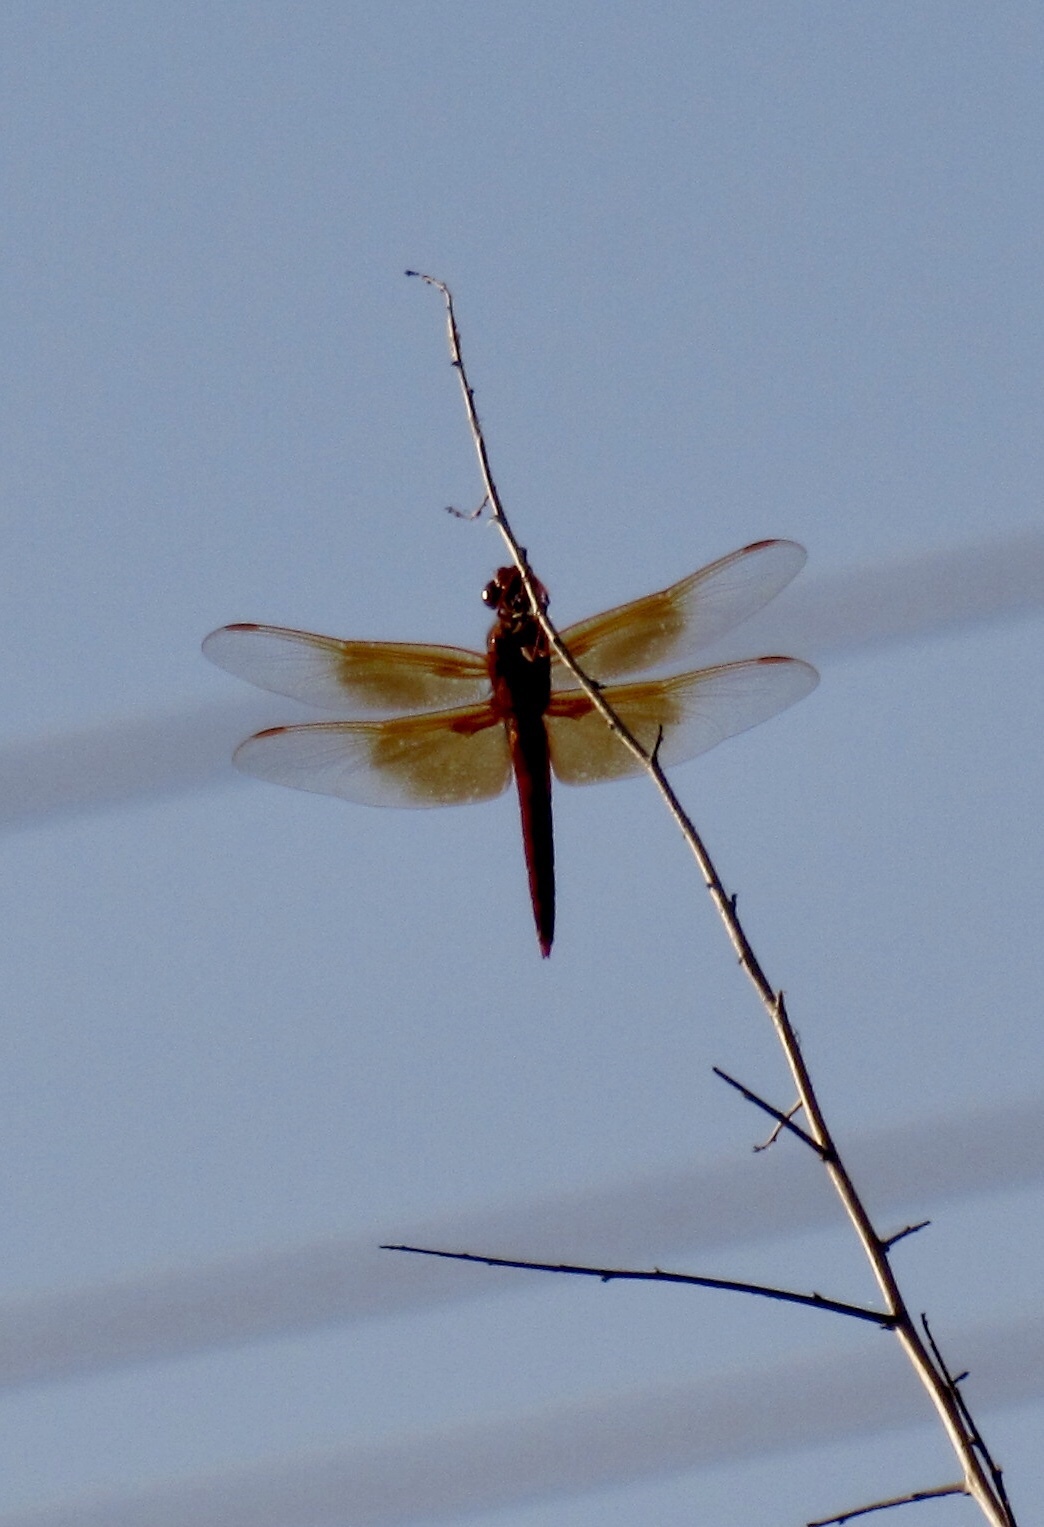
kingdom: Animalia
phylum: Arthropoda
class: Insecta
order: Odonata
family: Libellulidae
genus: Libellula
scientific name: Libellula saturata
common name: Flame skimmer
